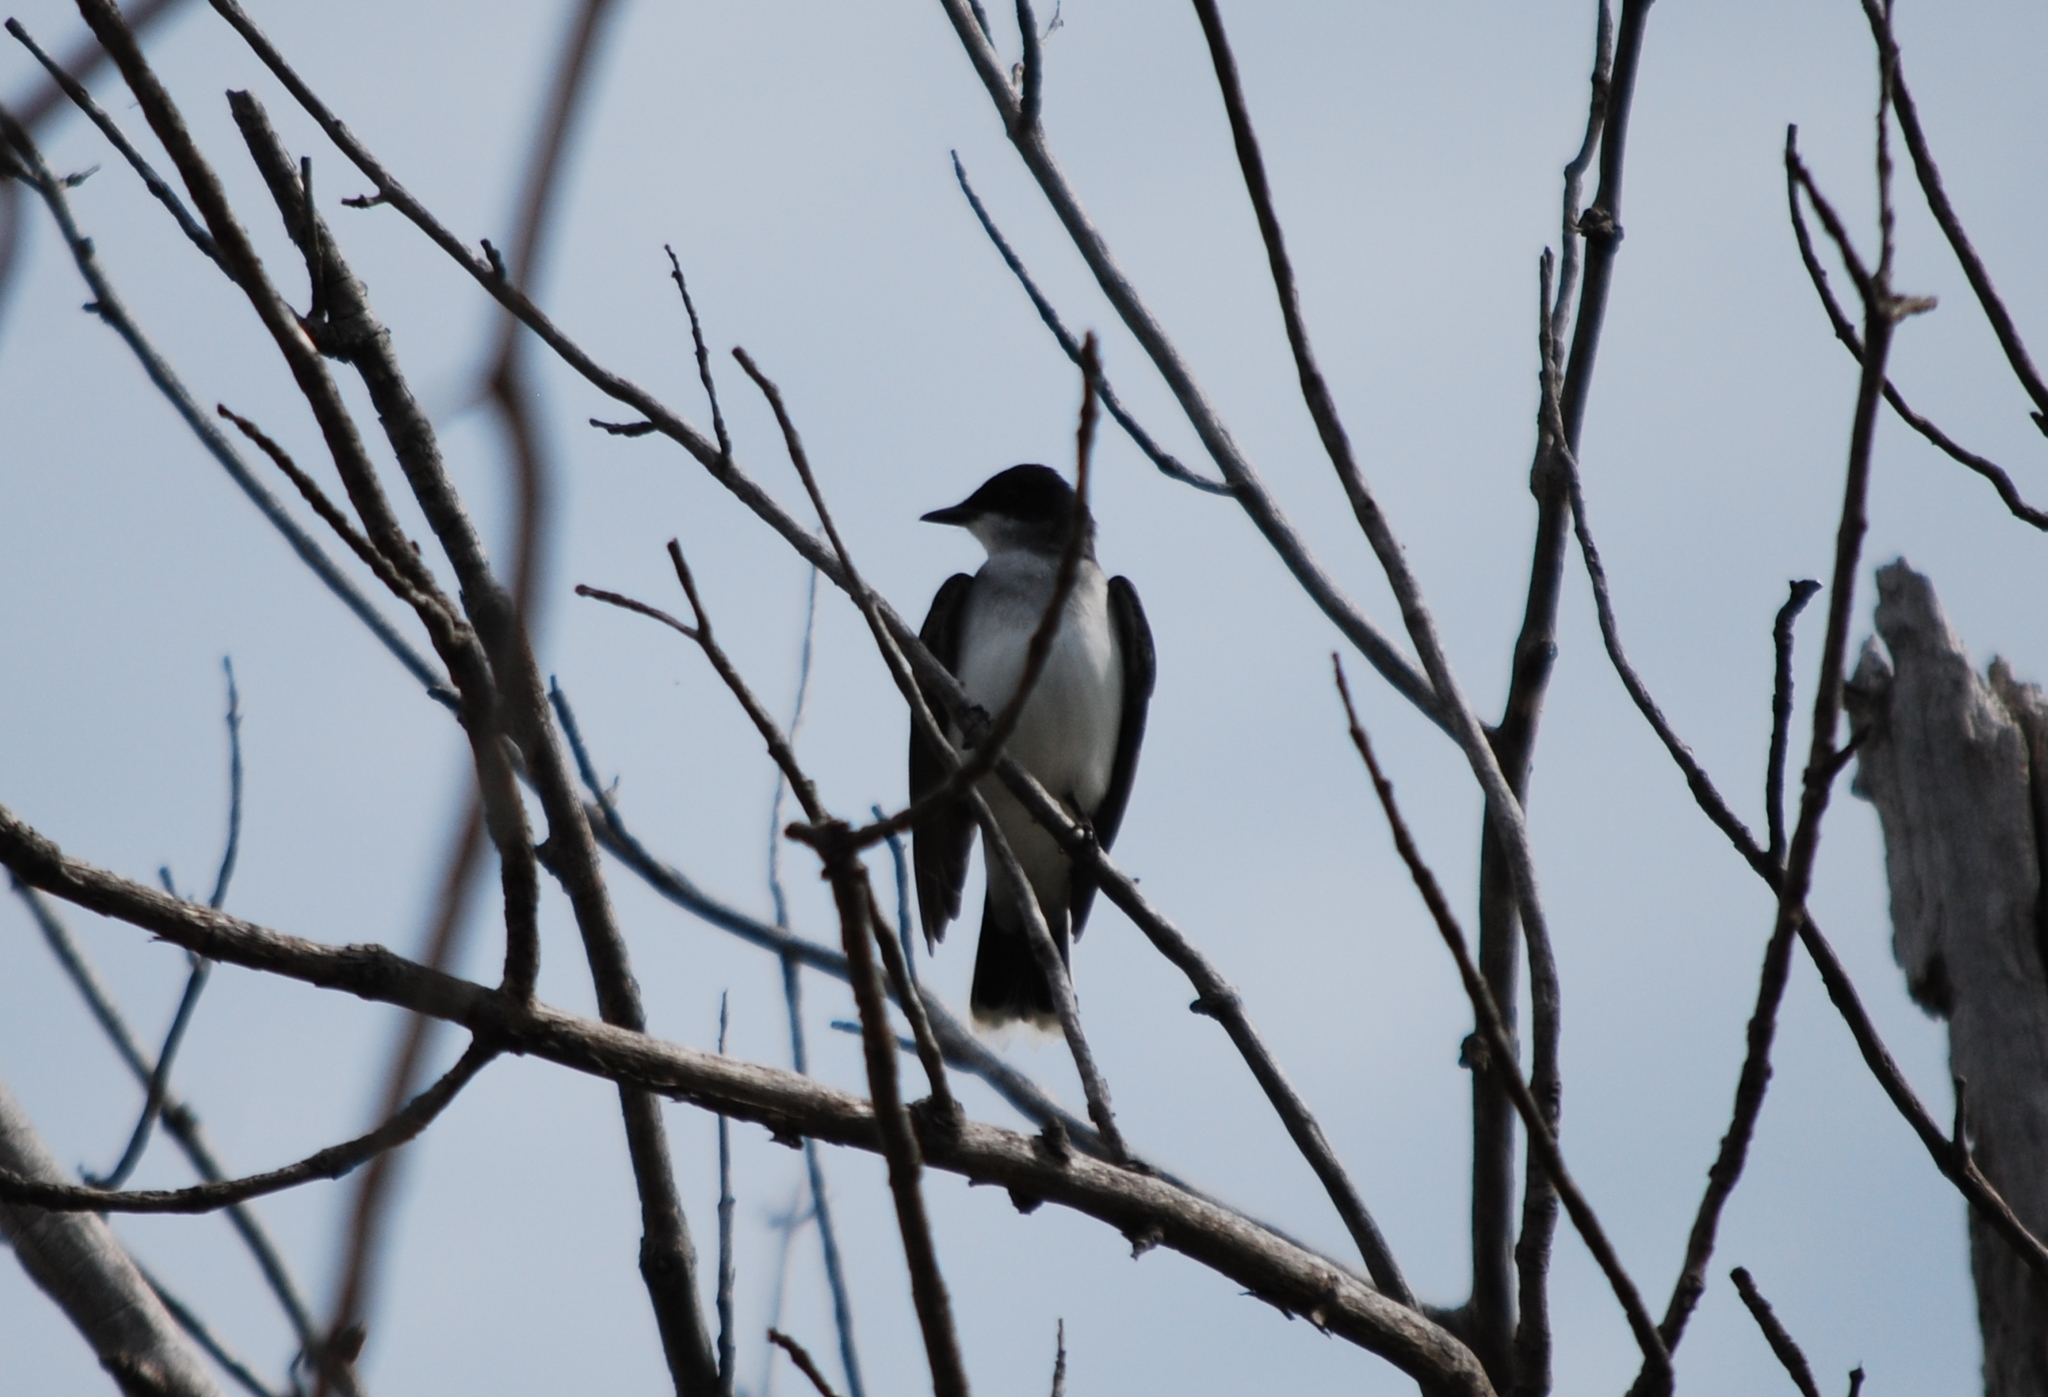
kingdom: Animalia
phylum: Chordata
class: Aves
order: Passeriformes
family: Tyrannidae
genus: Tyrannus
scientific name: Tyrannus tyrannus
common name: Eastern kingbird
